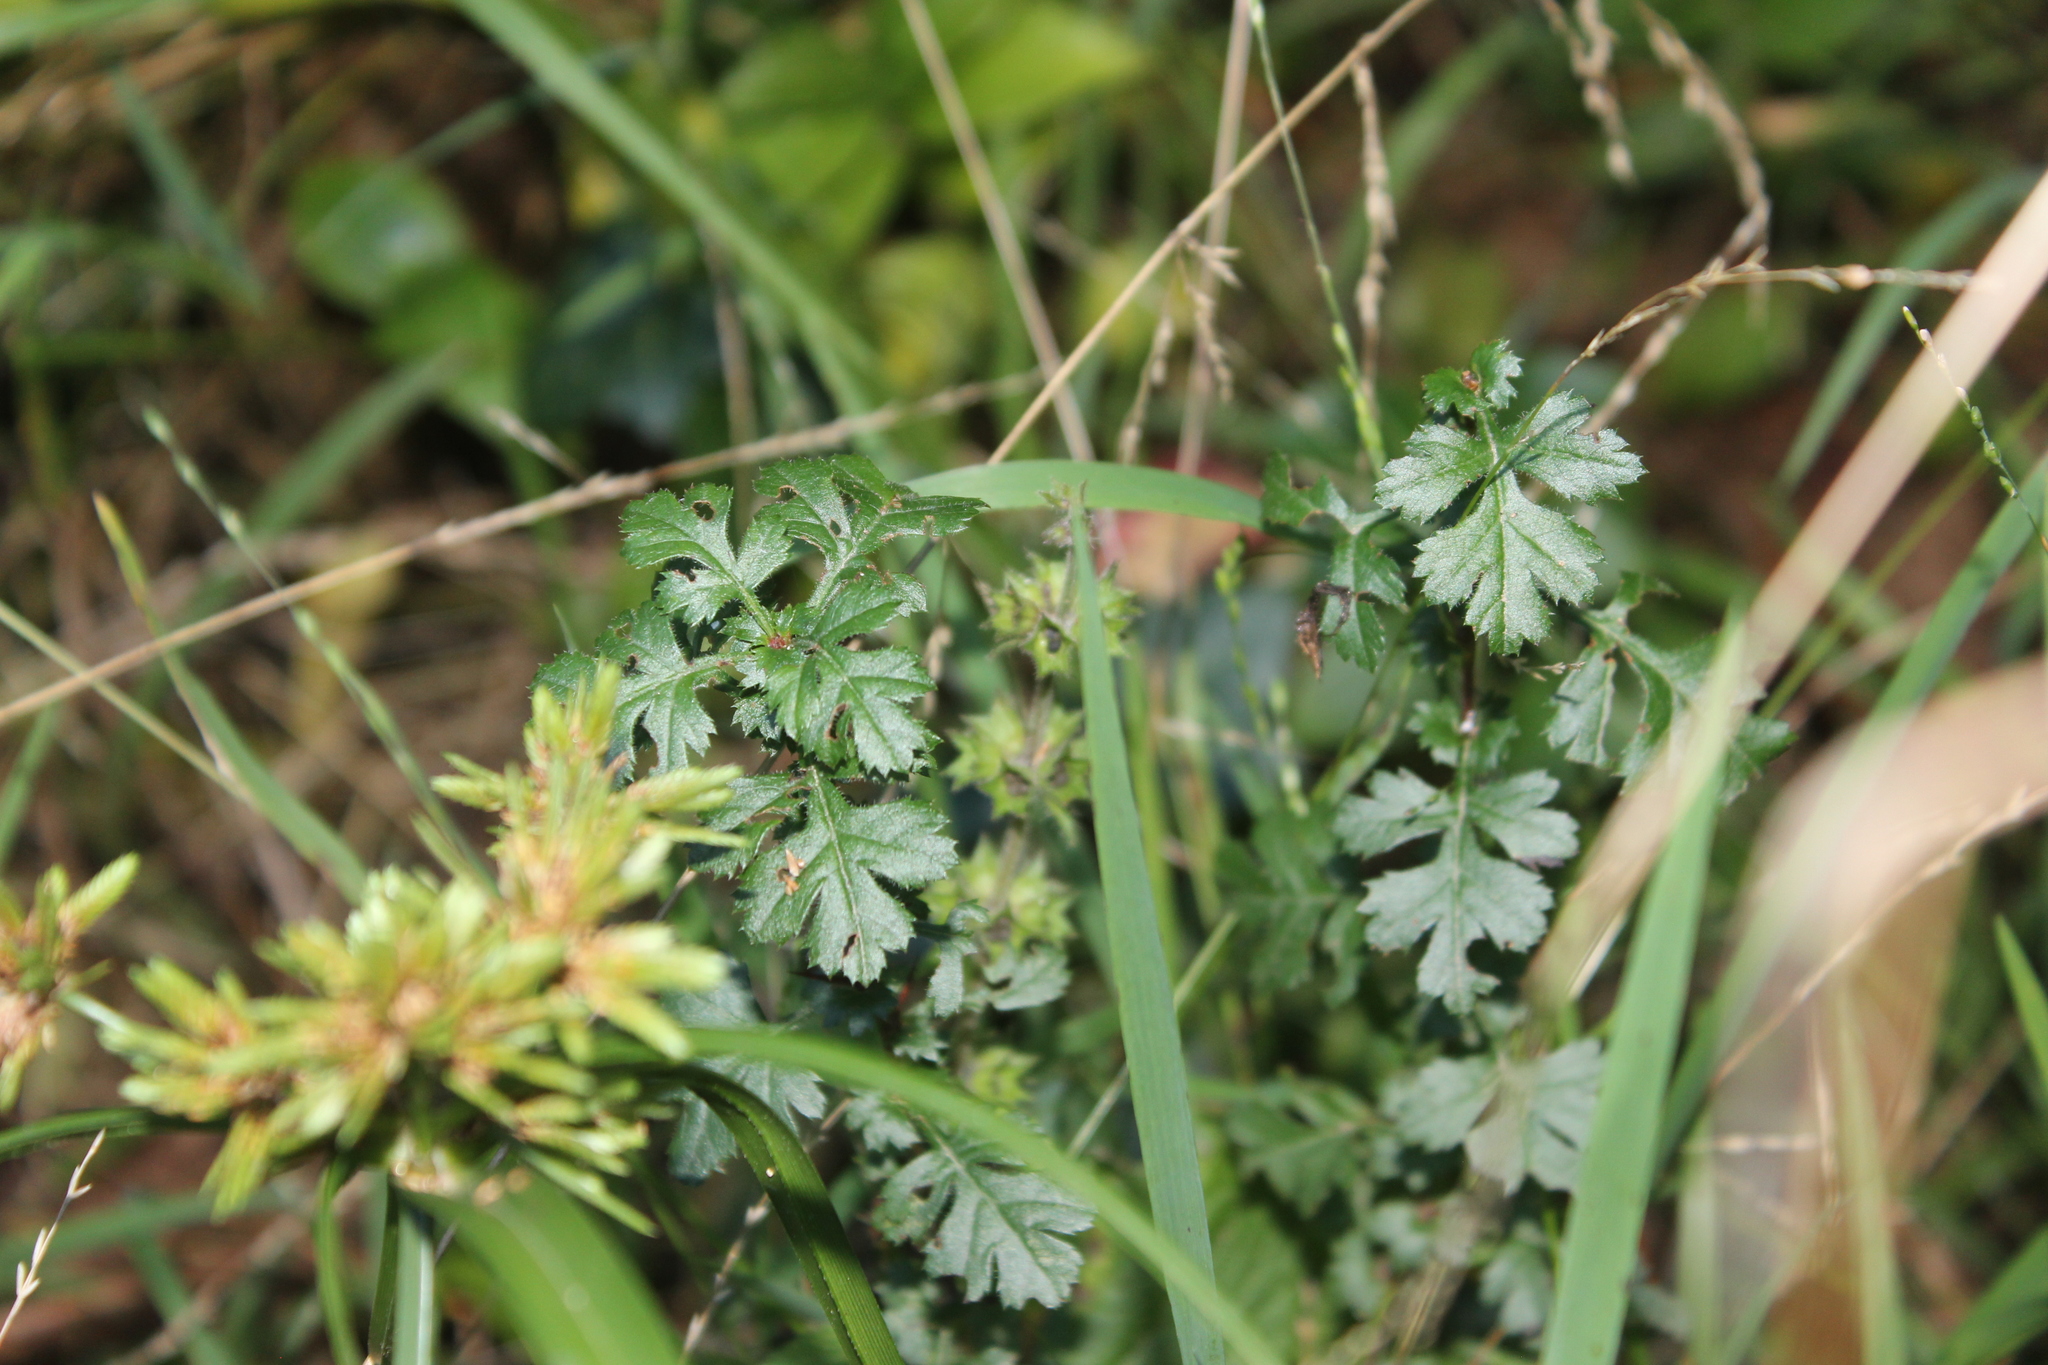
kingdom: Plantae
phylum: Tracheophyta
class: Magnoliopsida
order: Rosales
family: Rosaceae
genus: Crataegus
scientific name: Crataegus monogyna
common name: Hawthorn
